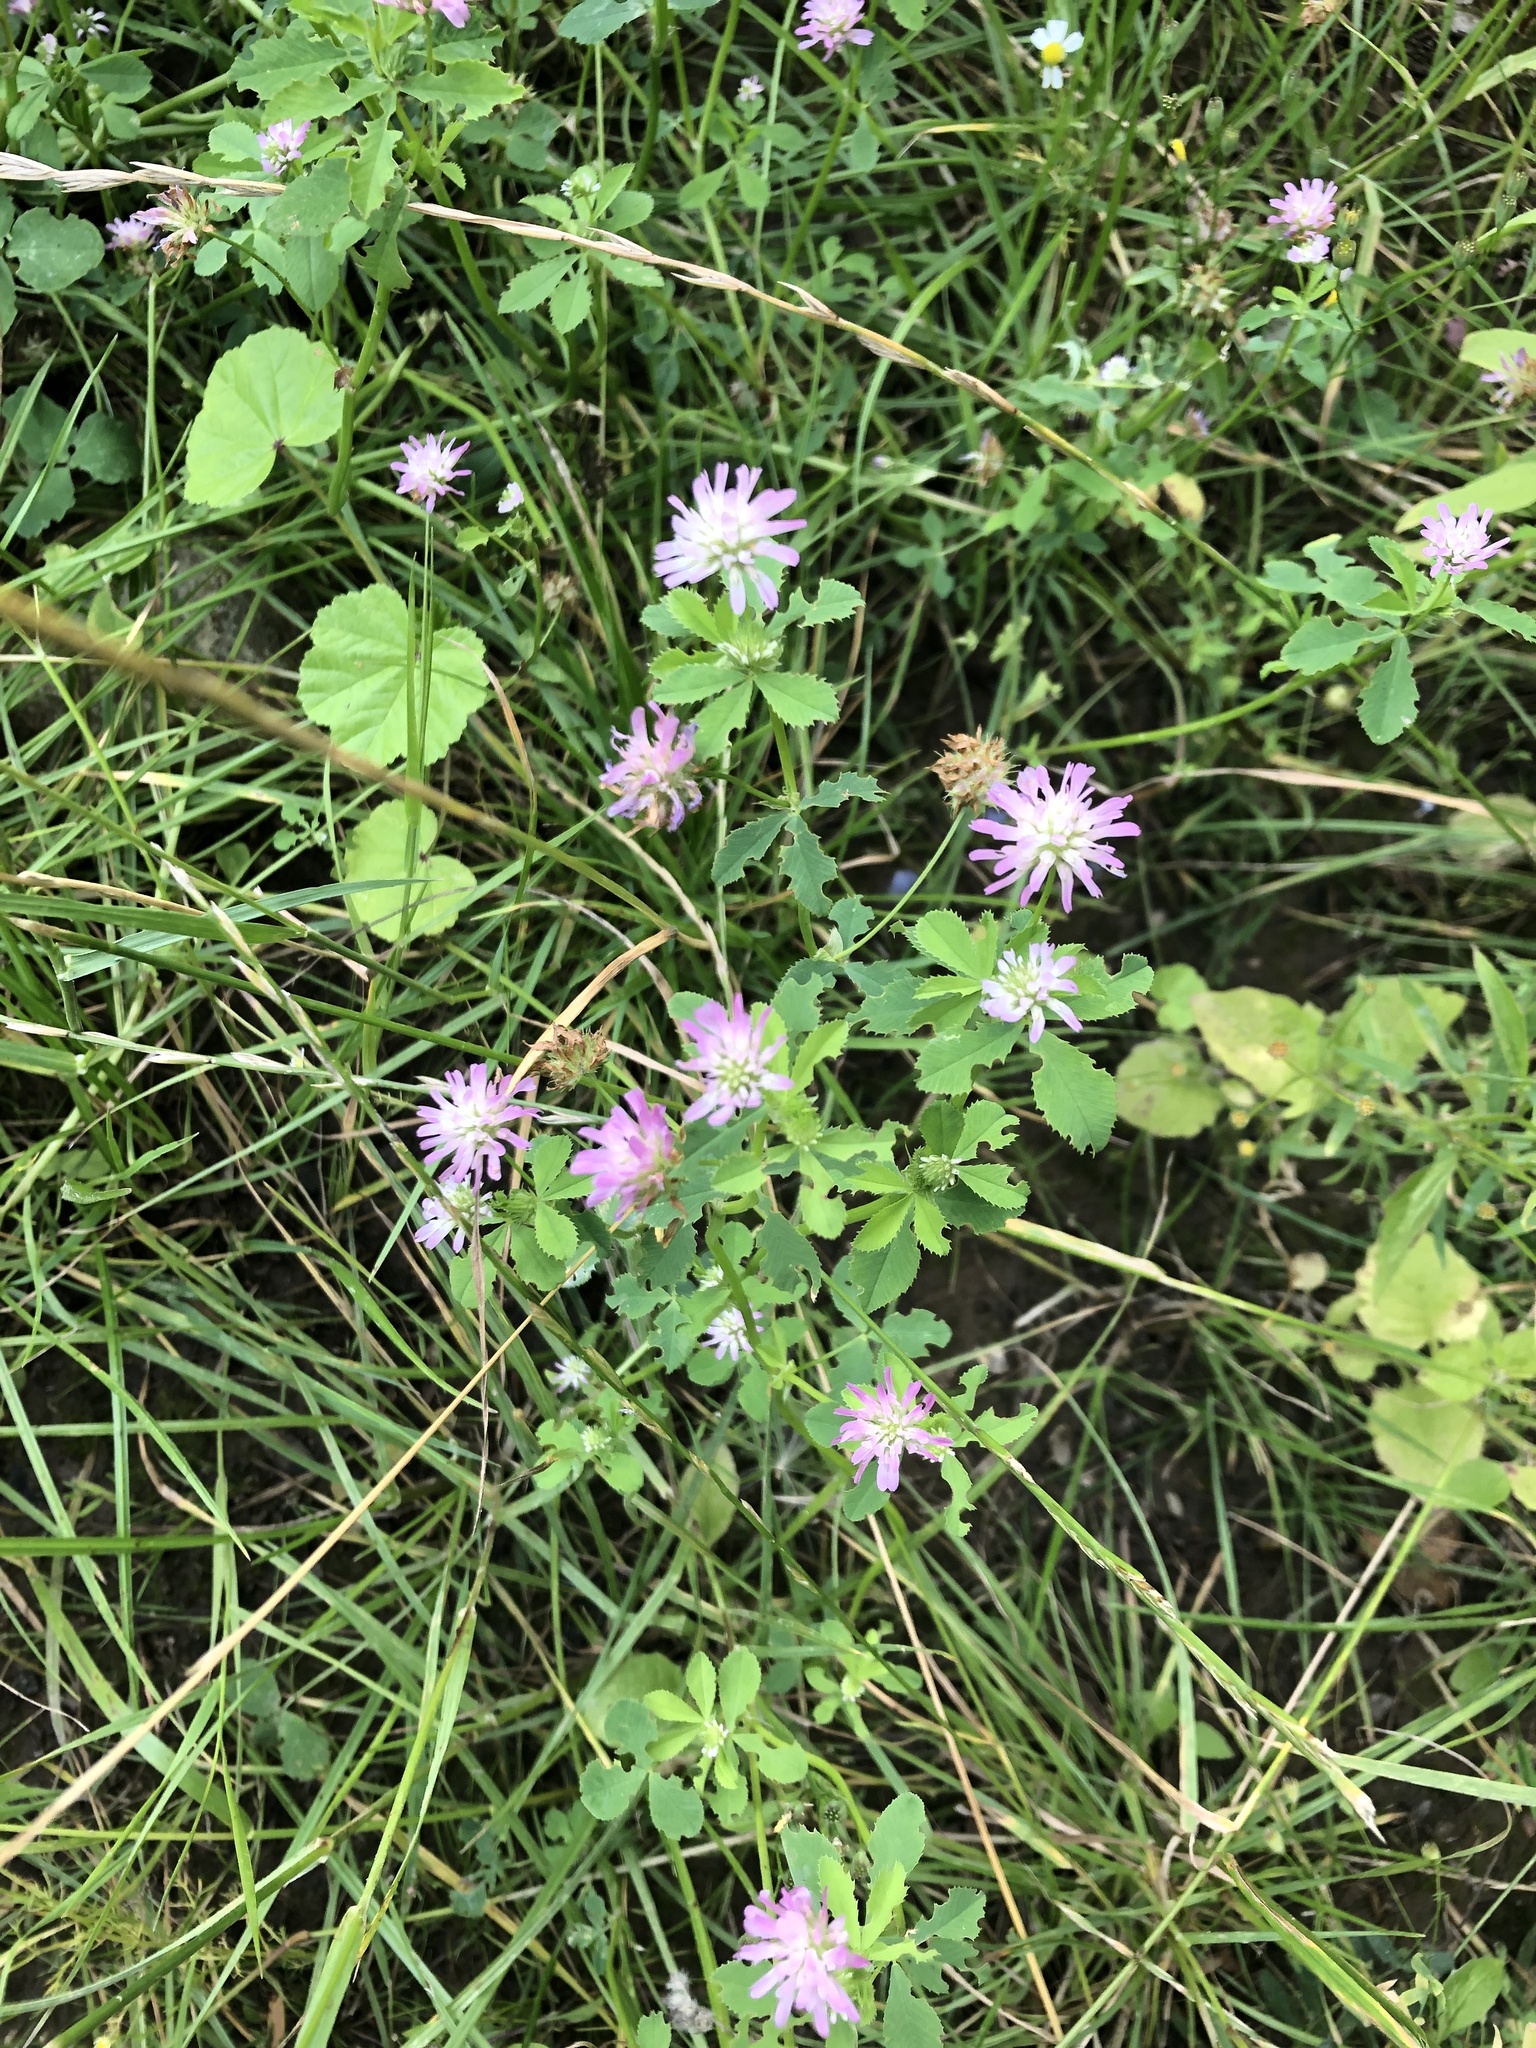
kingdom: Plantae
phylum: Tracheophyta
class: Magnoliopsida
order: Fabales
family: Fabaceae
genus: Trifolium
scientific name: Trifolium resupinatum
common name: Reversed clover
